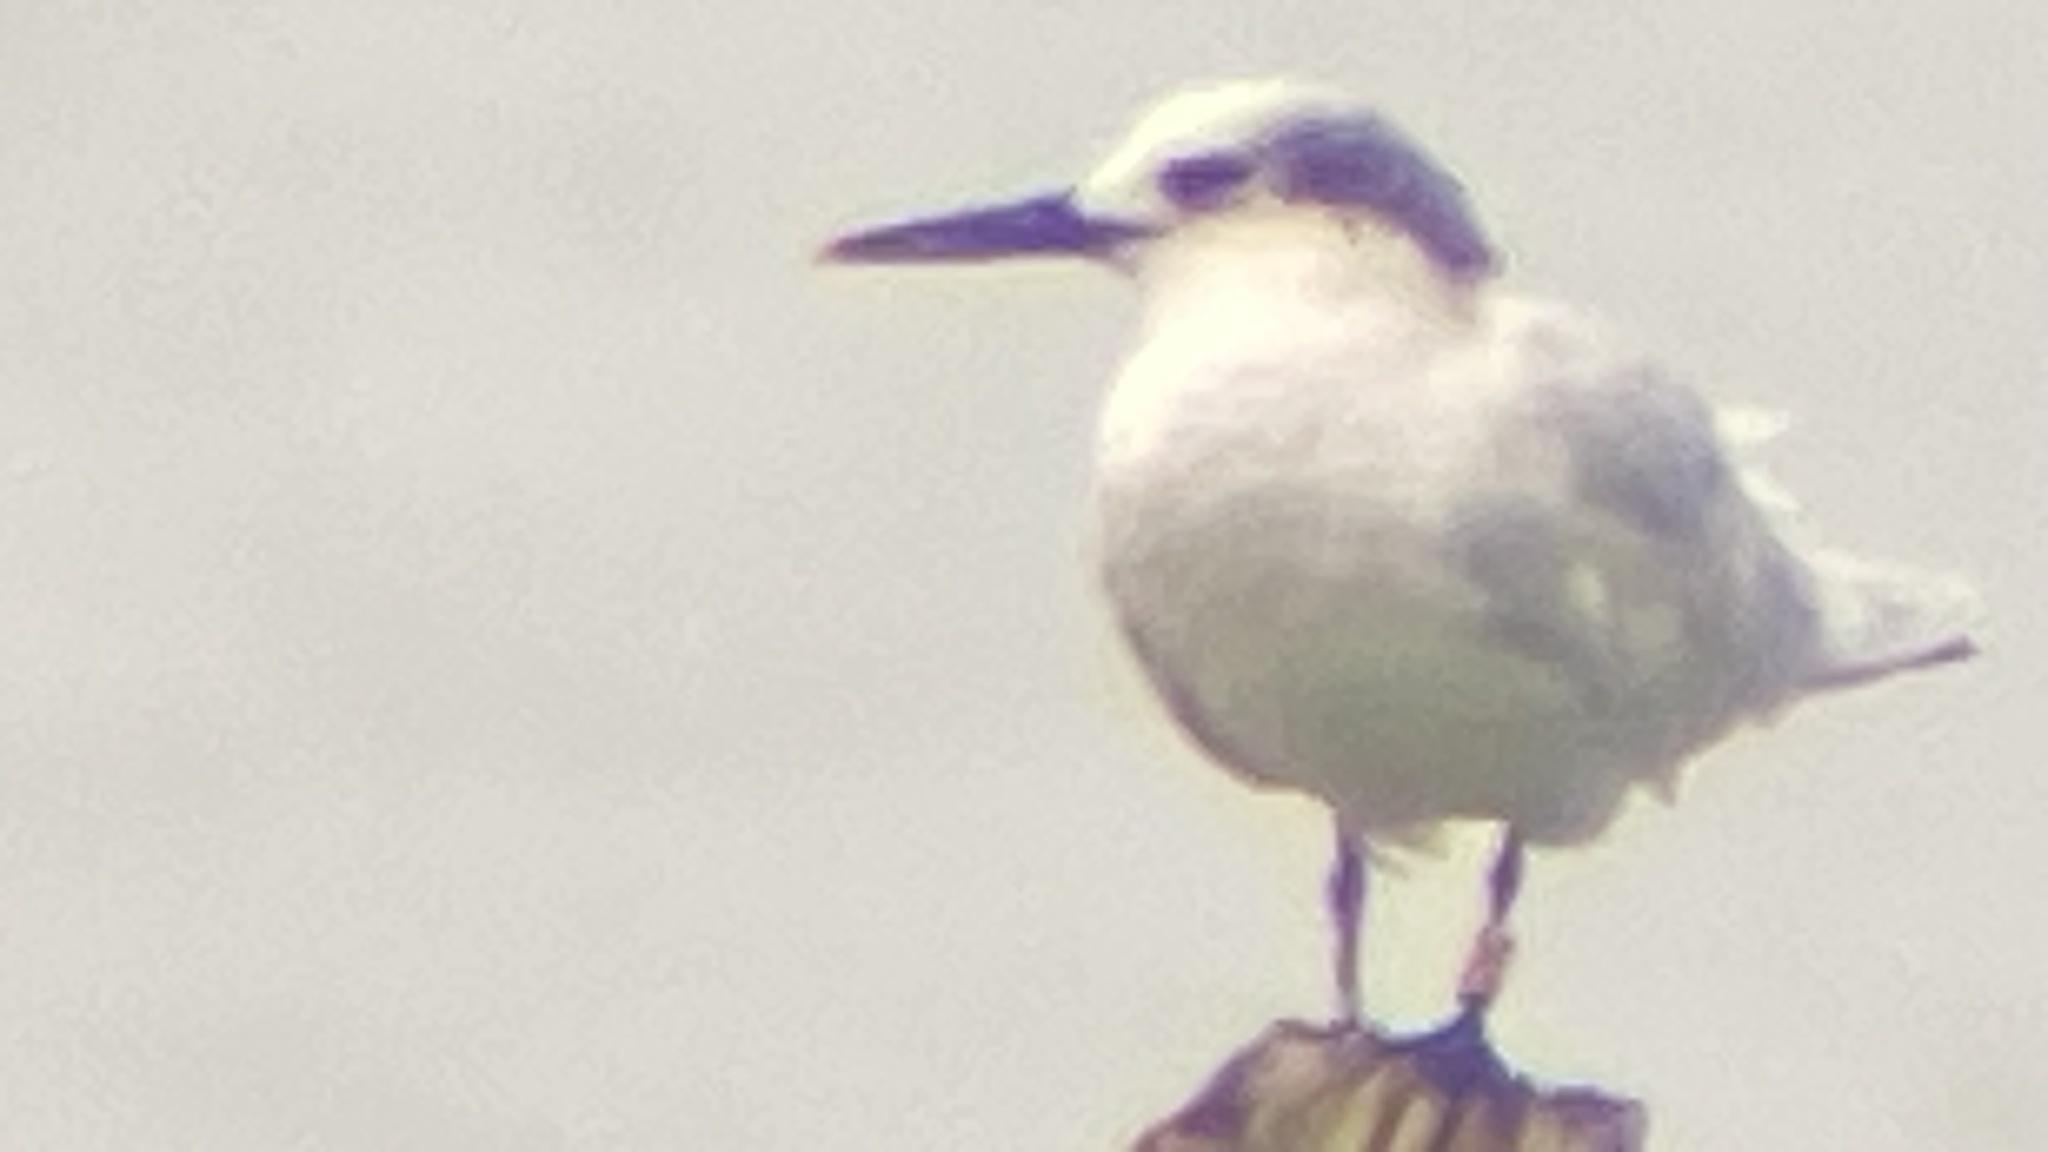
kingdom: Animalia
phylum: Chordata
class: Aves
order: Charadriiformes
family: Laridae
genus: Thalasseus
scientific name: Thalasseus sandvicensis
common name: Sandwich tern
